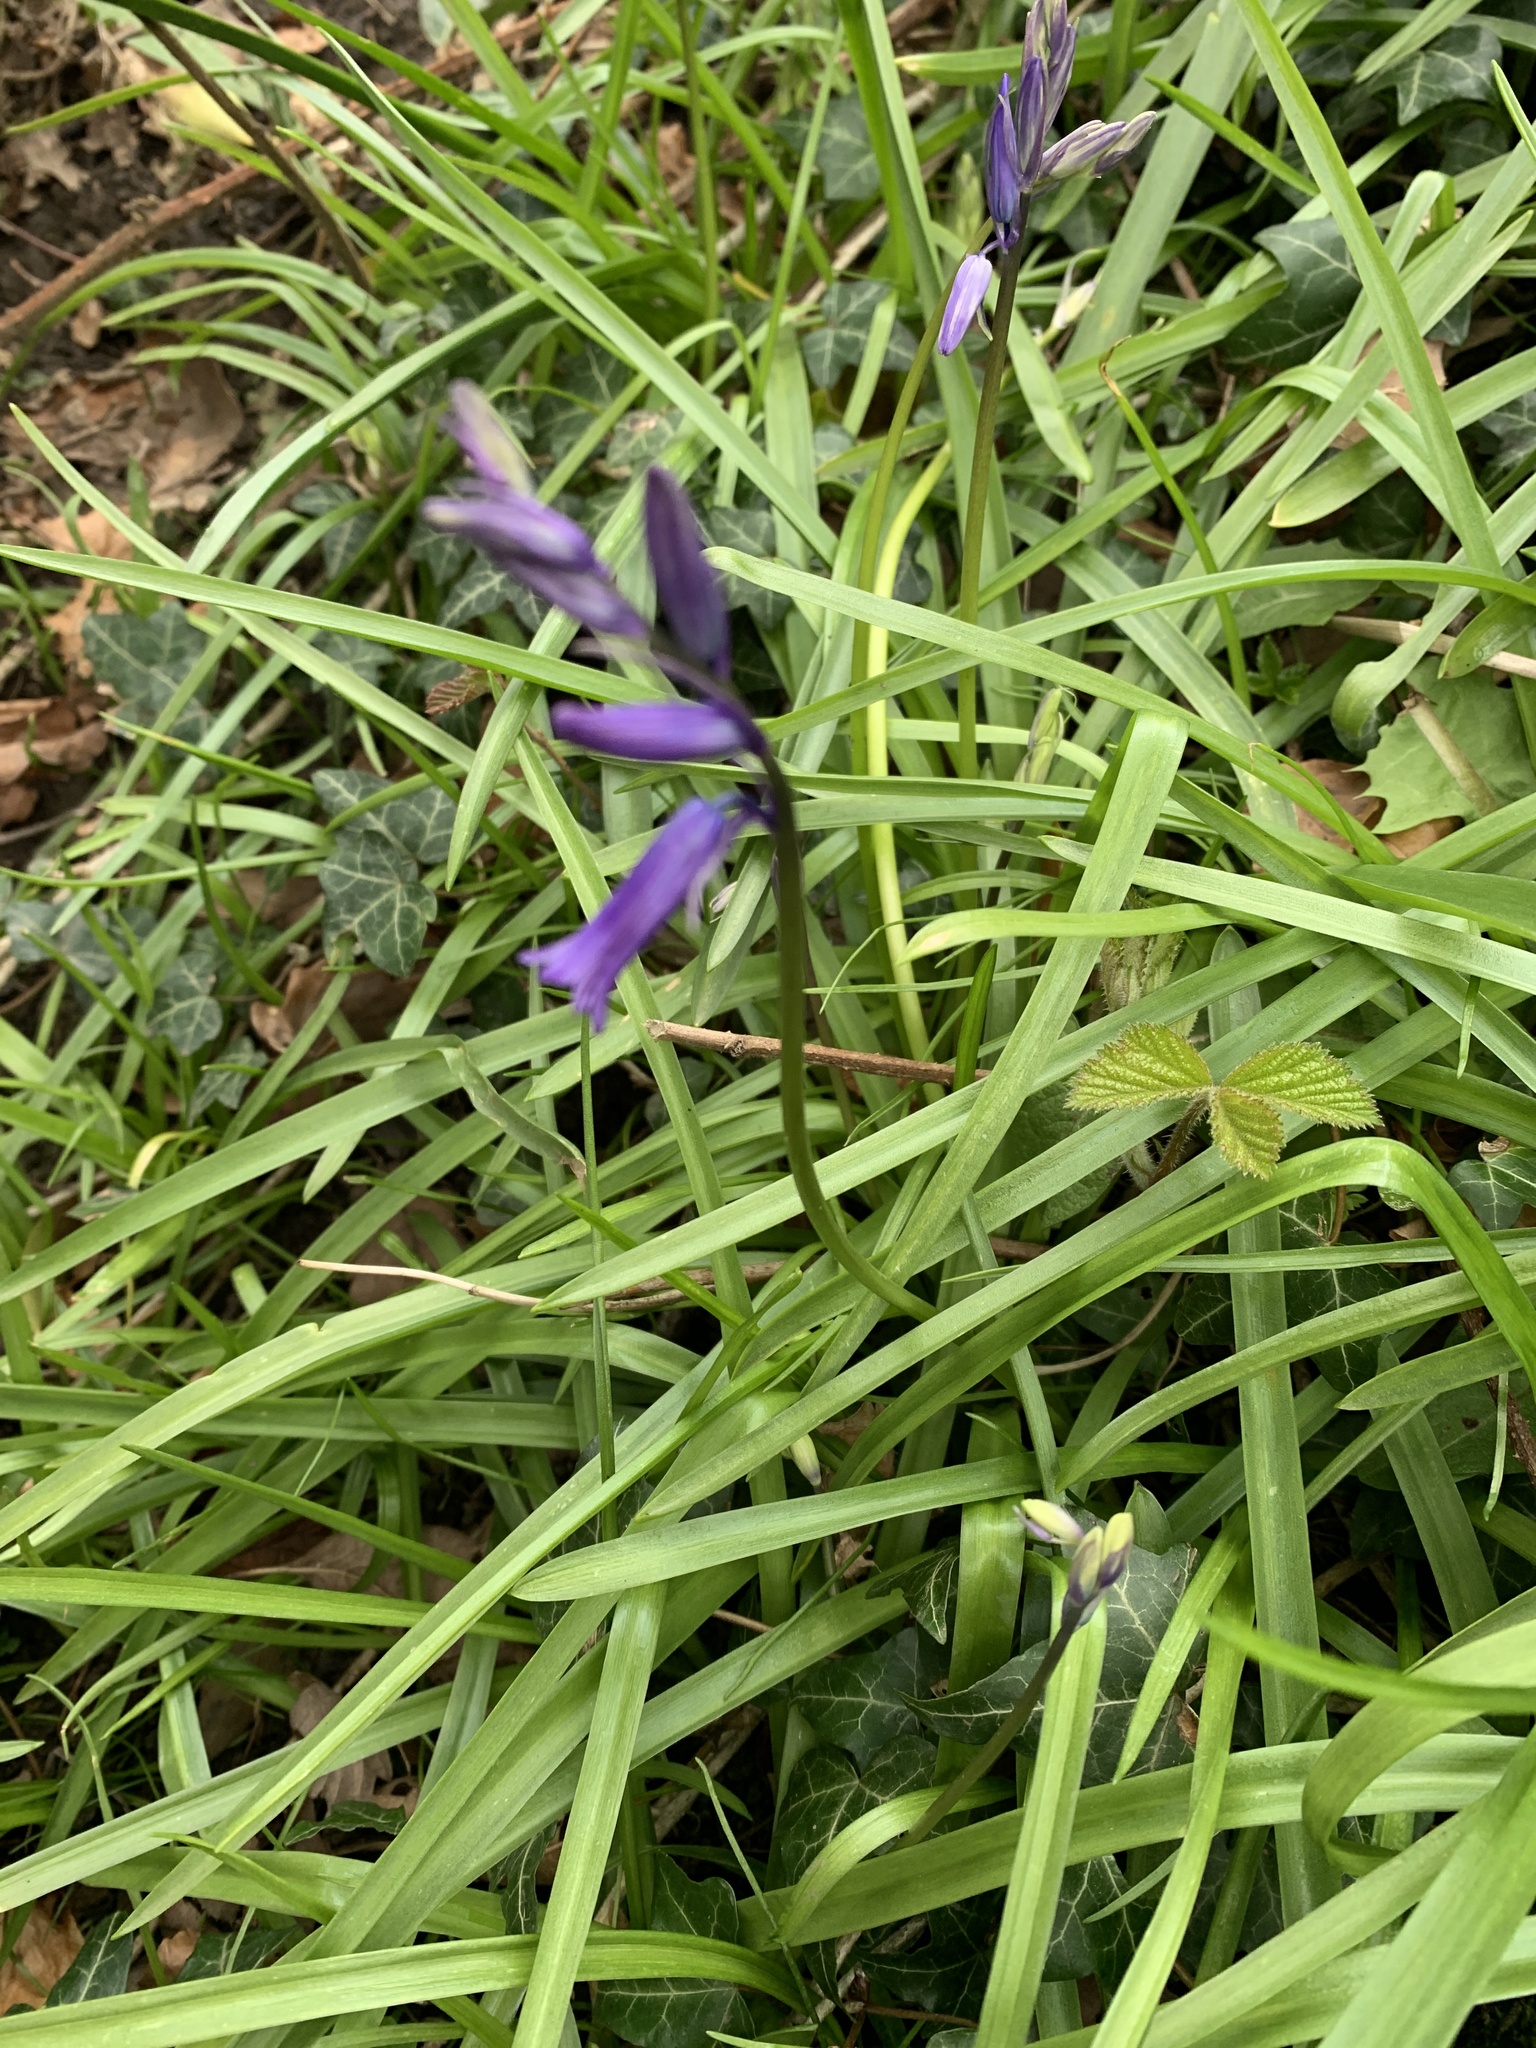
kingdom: Plantae
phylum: Tracheophyta
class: Liliopsida
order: Asparagales
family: Asparagaceae
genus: Hyacinthoides
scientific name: Hyacinthoides non-scripta
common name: Bluebell
